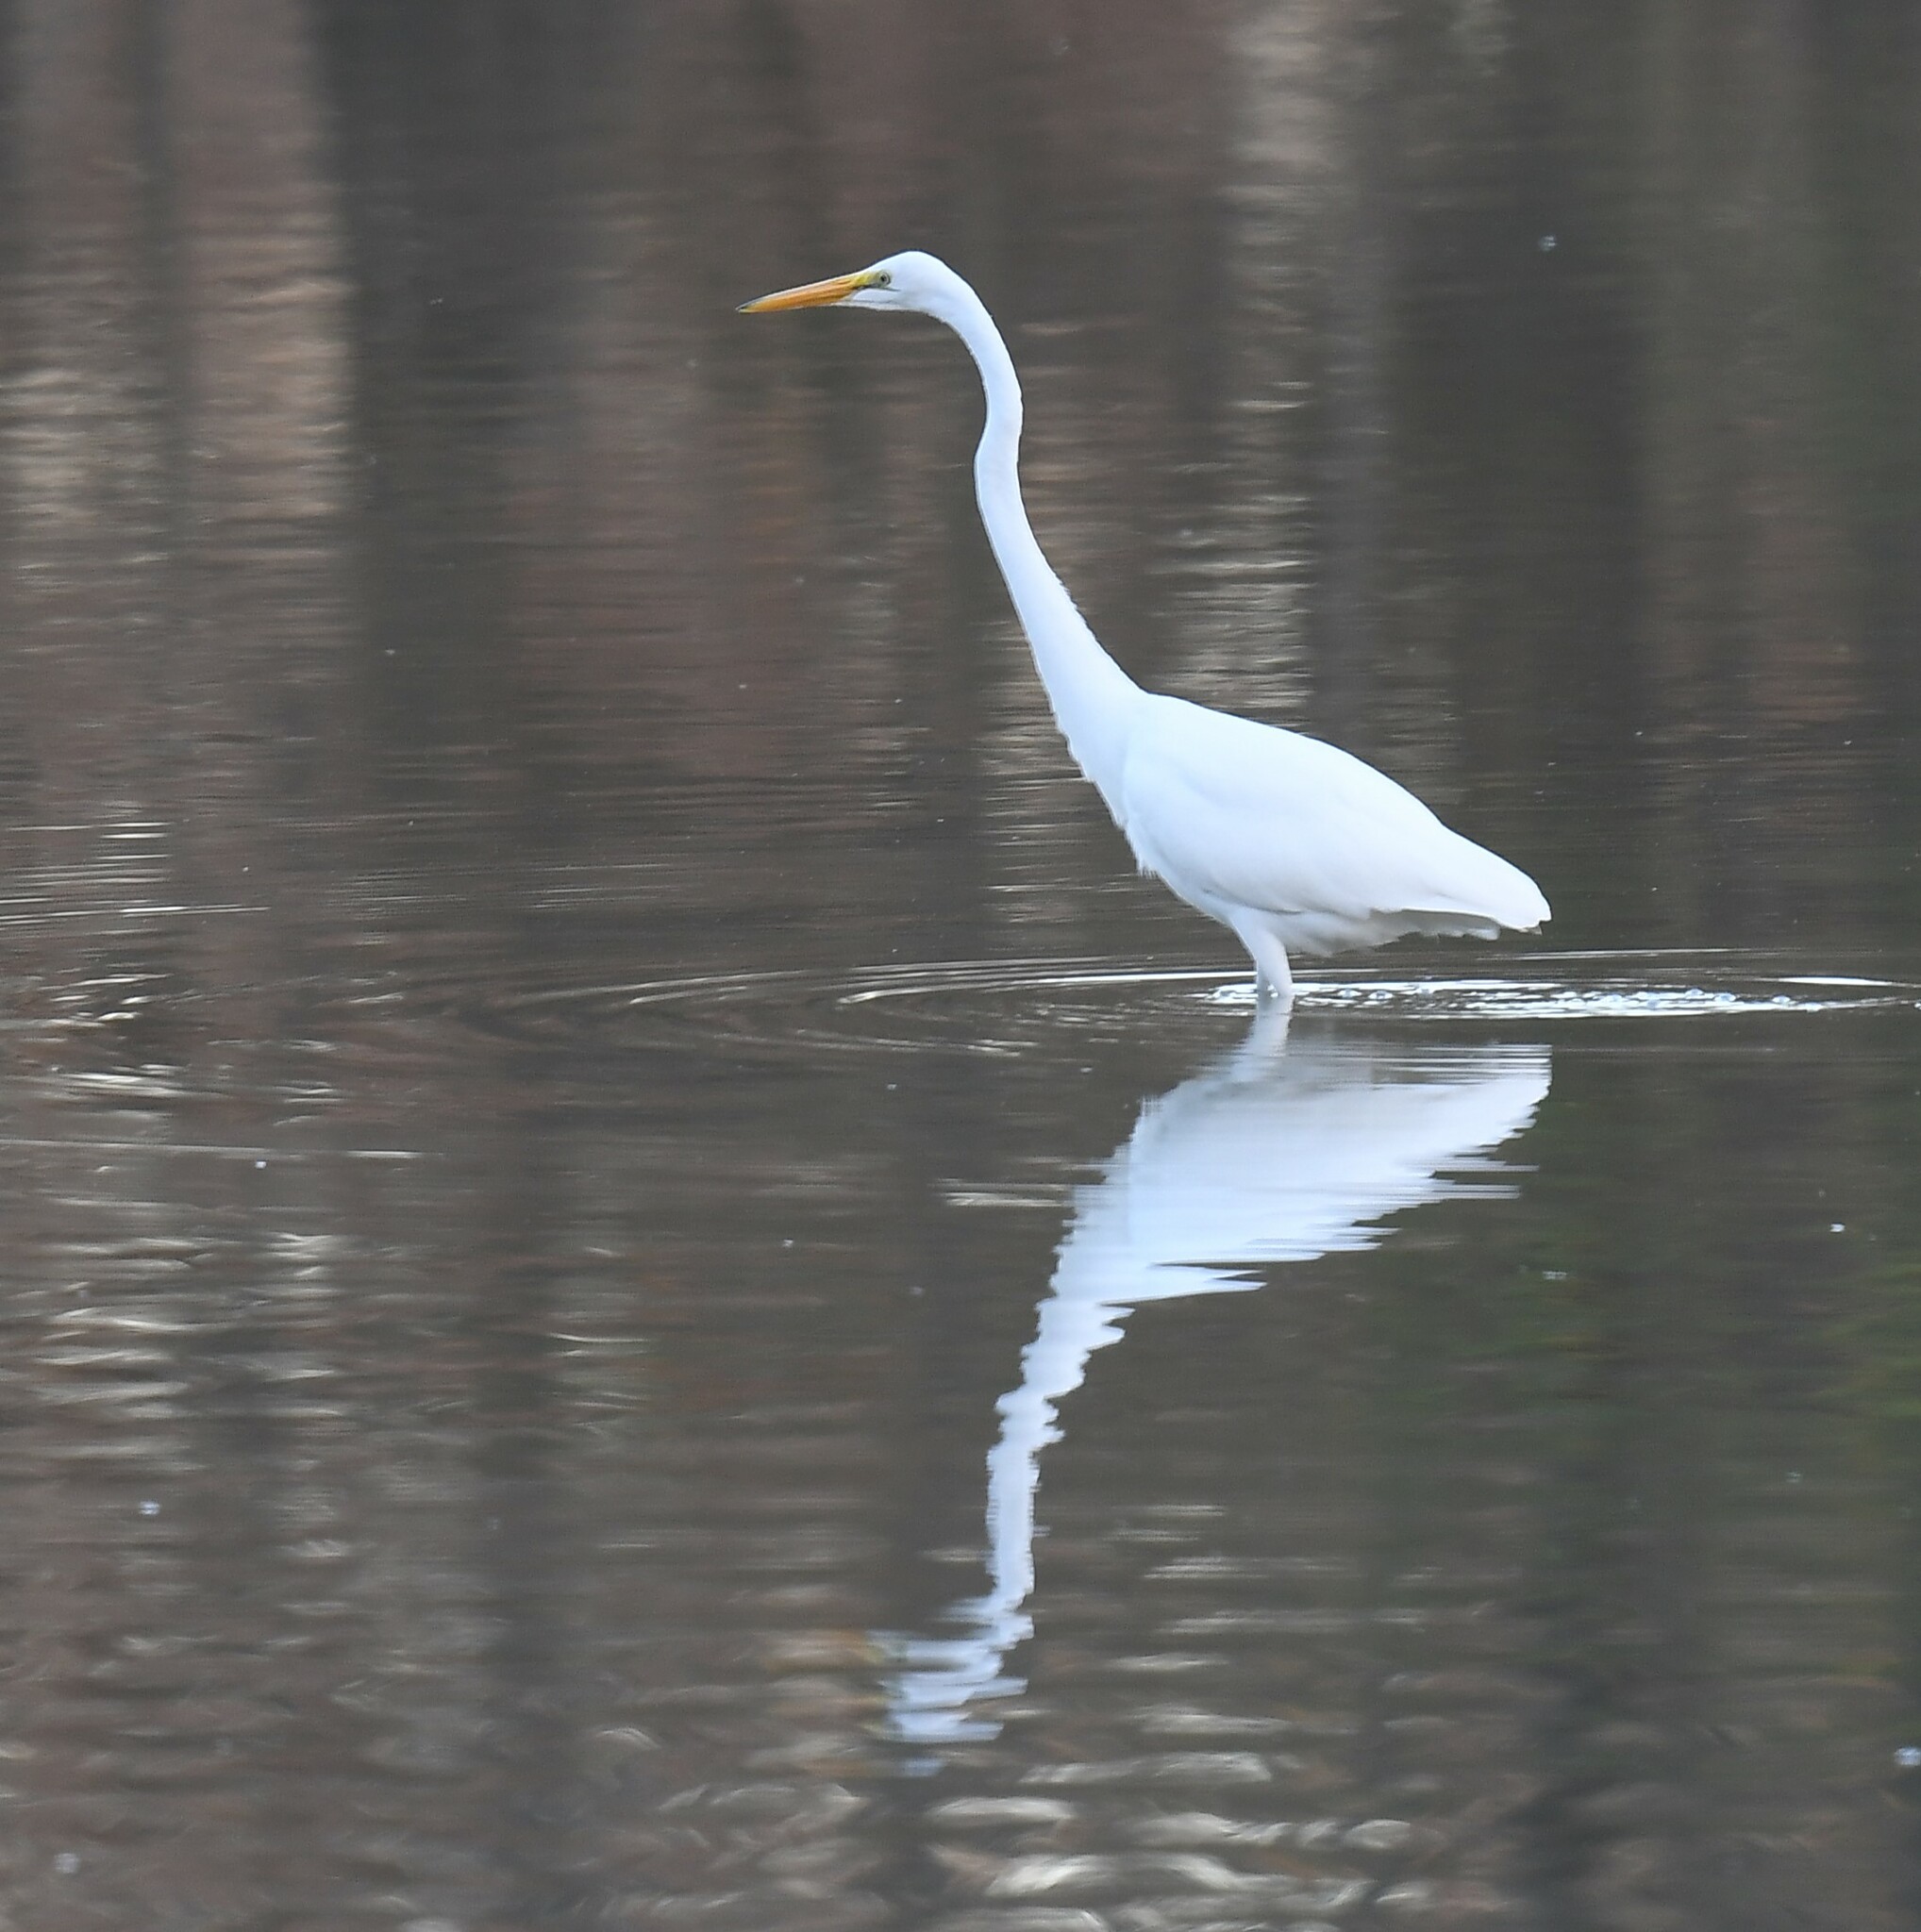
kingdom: Animalia
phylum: Chordata
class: Aves
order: Pelecaniformes
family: Ardeidae
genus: Ardea
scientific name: Ardea alba
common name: Great egret
